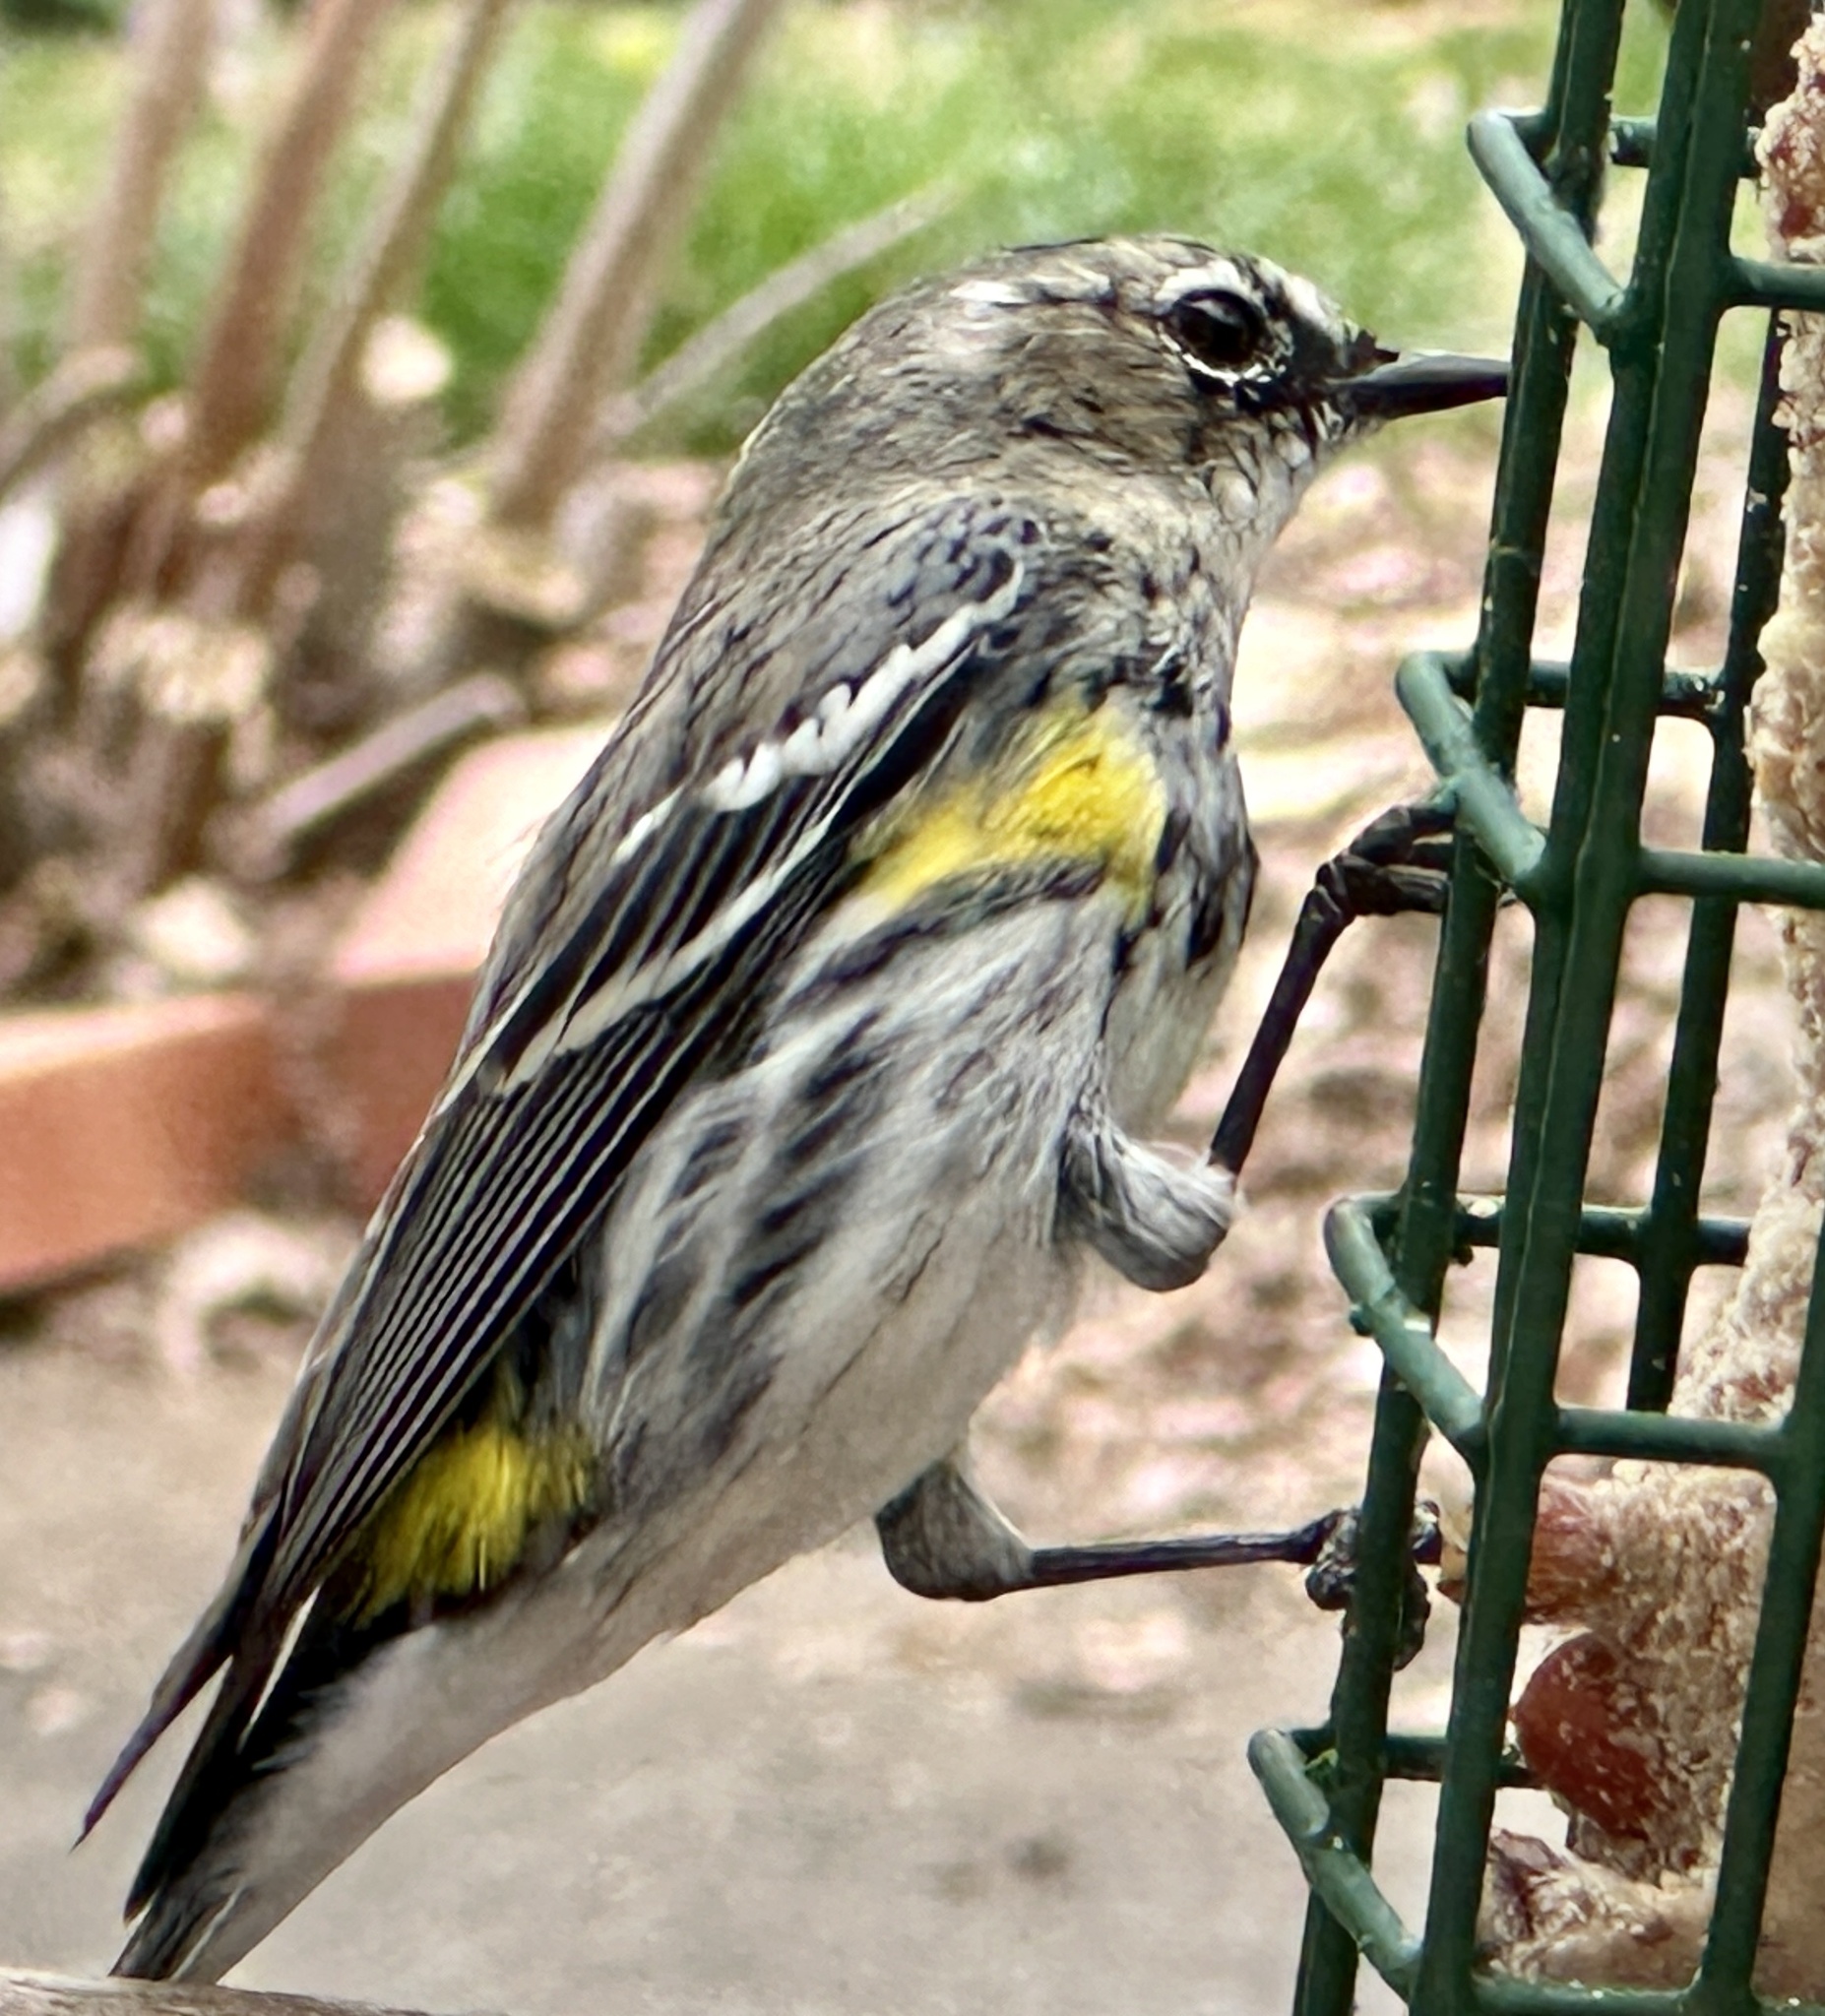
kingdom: Animalia
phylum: Chordata
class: Aves
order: Passeriformes
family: Parulidae
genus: Setophaga
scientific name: Setophaga coronata
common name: Myrtle warbler
